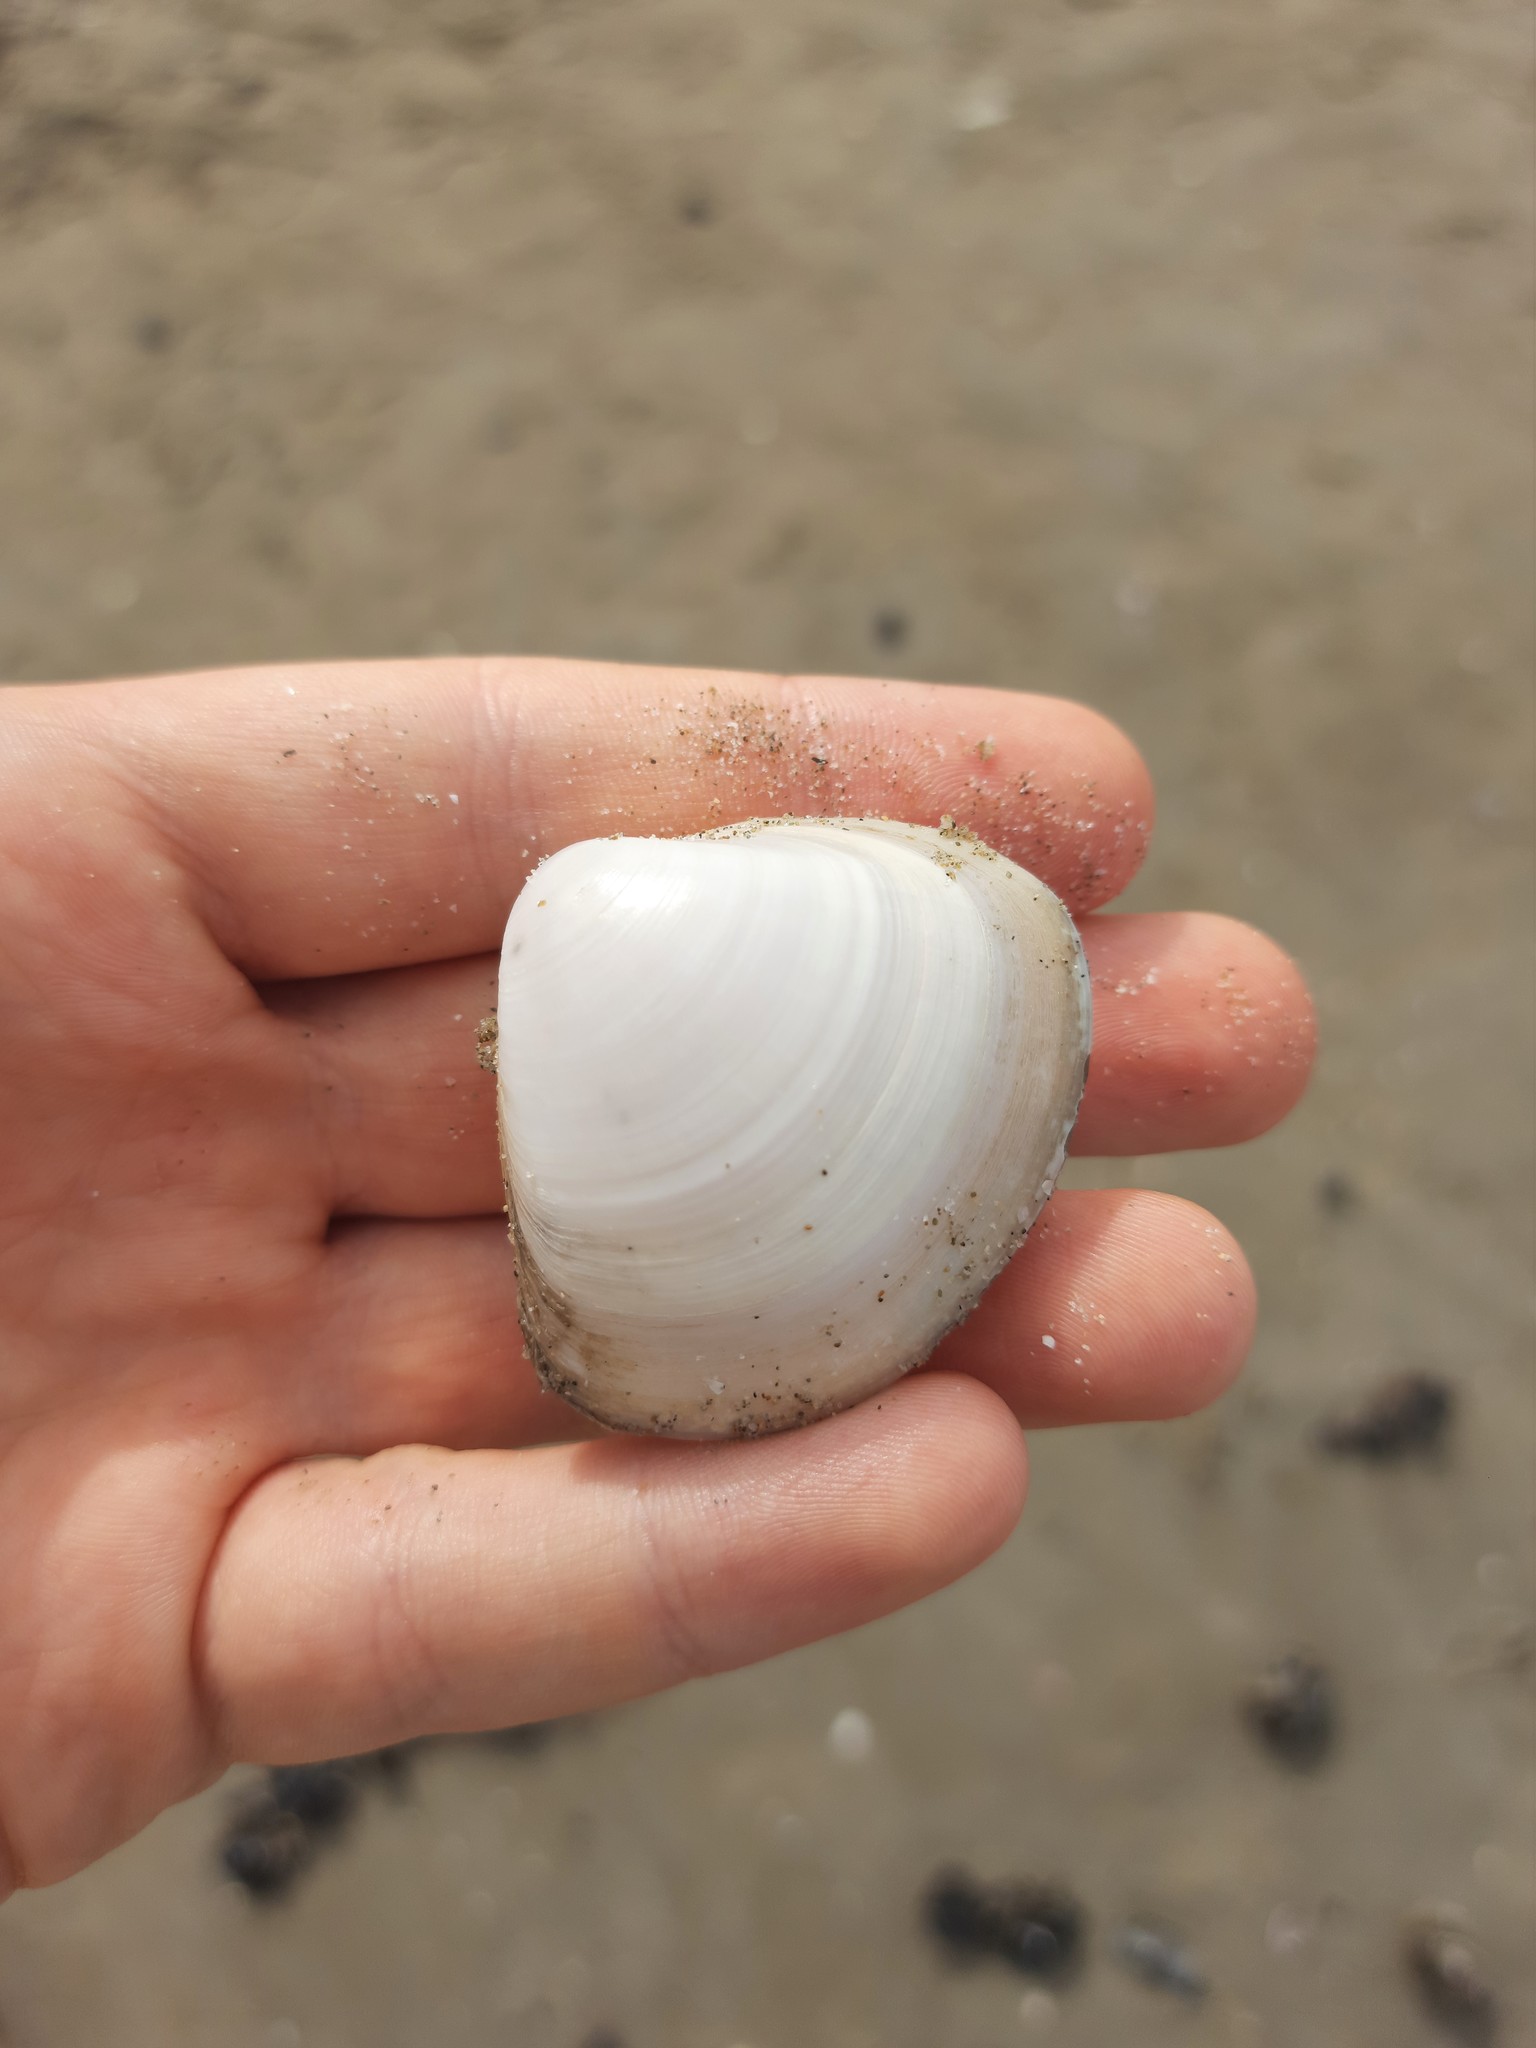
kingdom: Animalia
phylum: Mollusca
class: Bivalvia
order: Venerida
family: Mactridae
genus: Mactra
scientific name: Mactra stultorum
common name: Rayed trough shell
